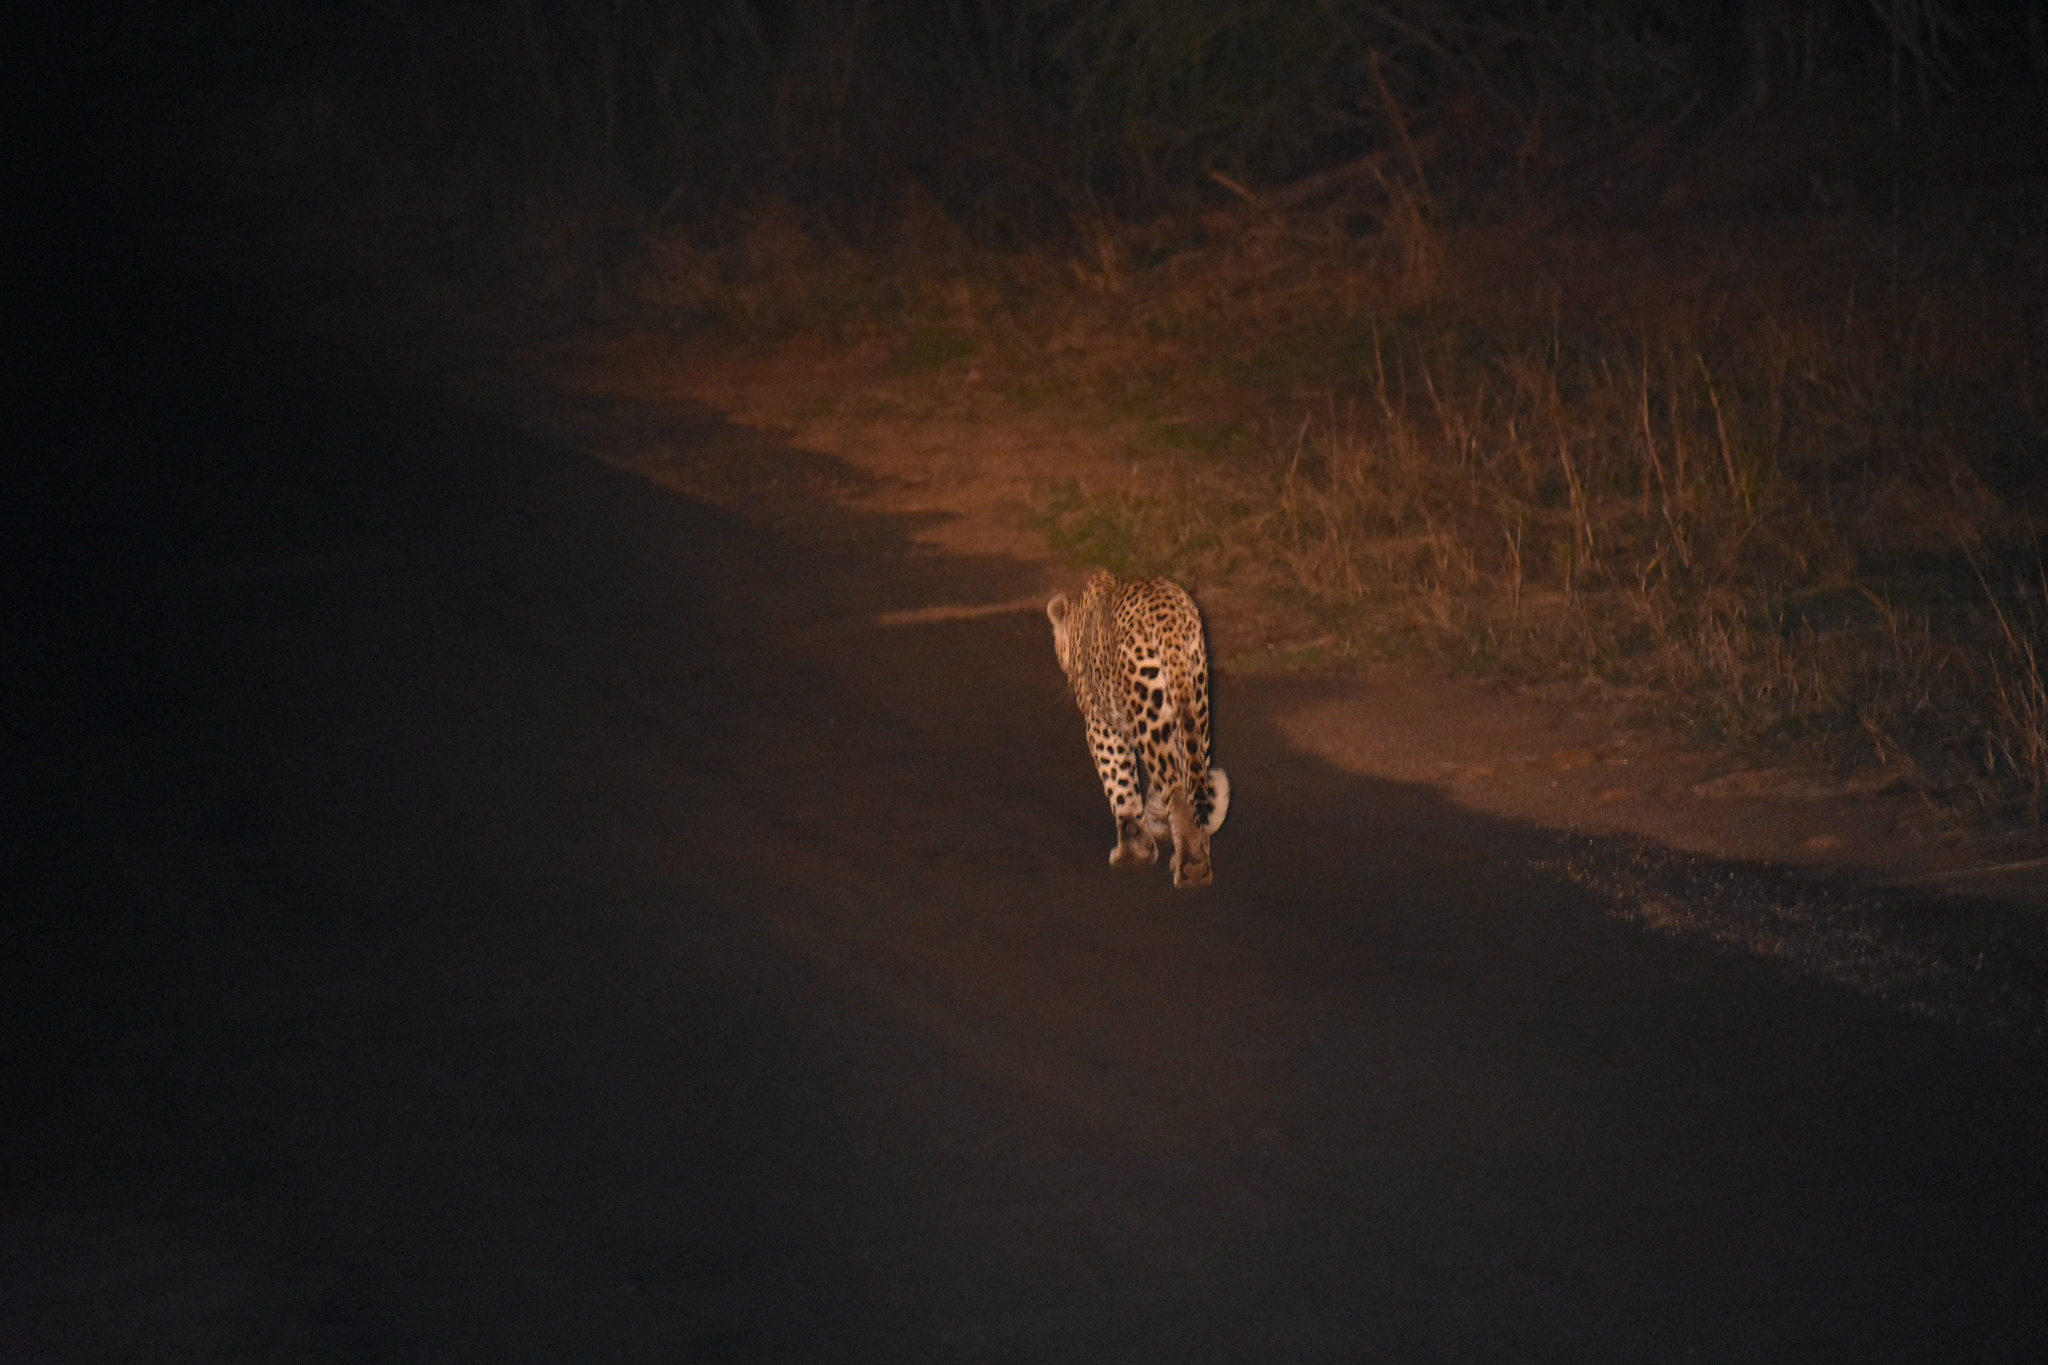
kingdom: Animalia
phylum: Chordata
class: Mammalia
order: Carnivora
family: Felidae
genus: Panthera
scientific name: Panthera pardus
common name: Leopard
